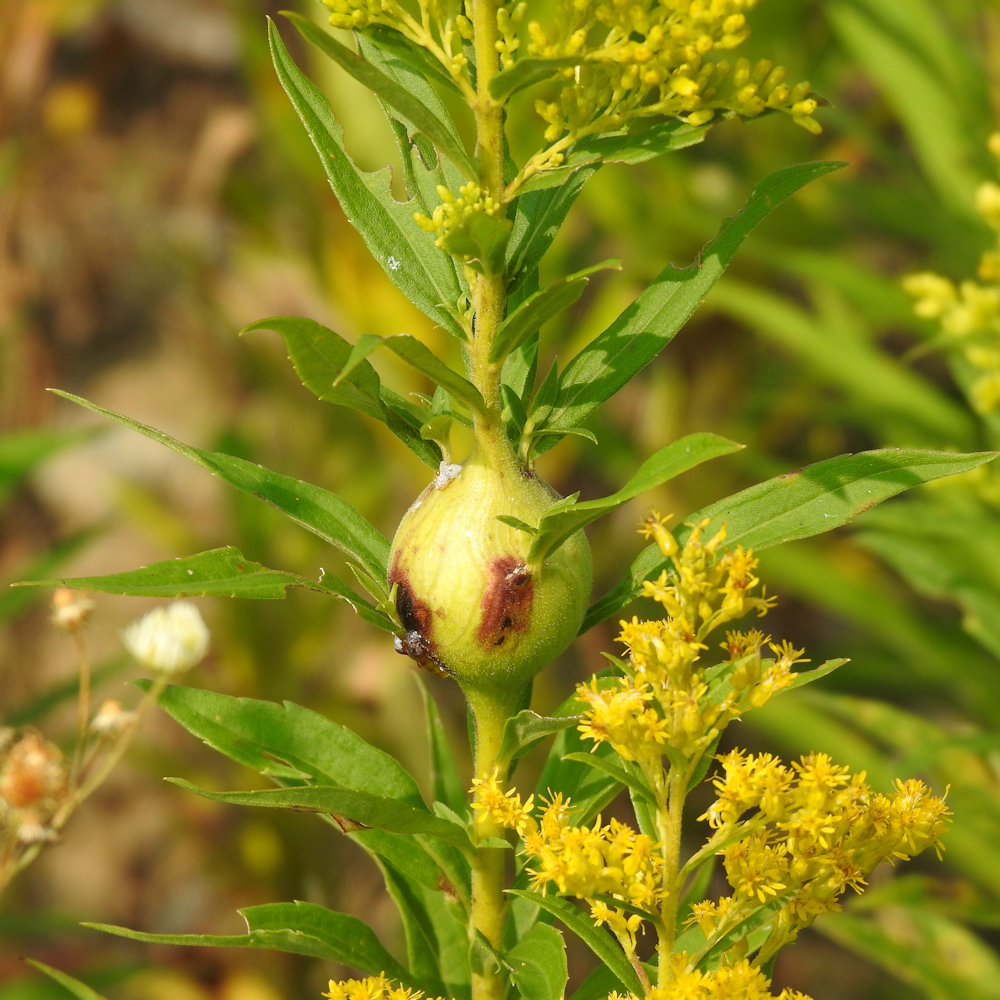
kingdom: Animalia
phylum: Arthropoda
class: Insecta
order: Diptera
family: Tephritidae
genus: Eurosta
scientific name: Eurosta solidaginis
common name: Goldenrod gall fly
